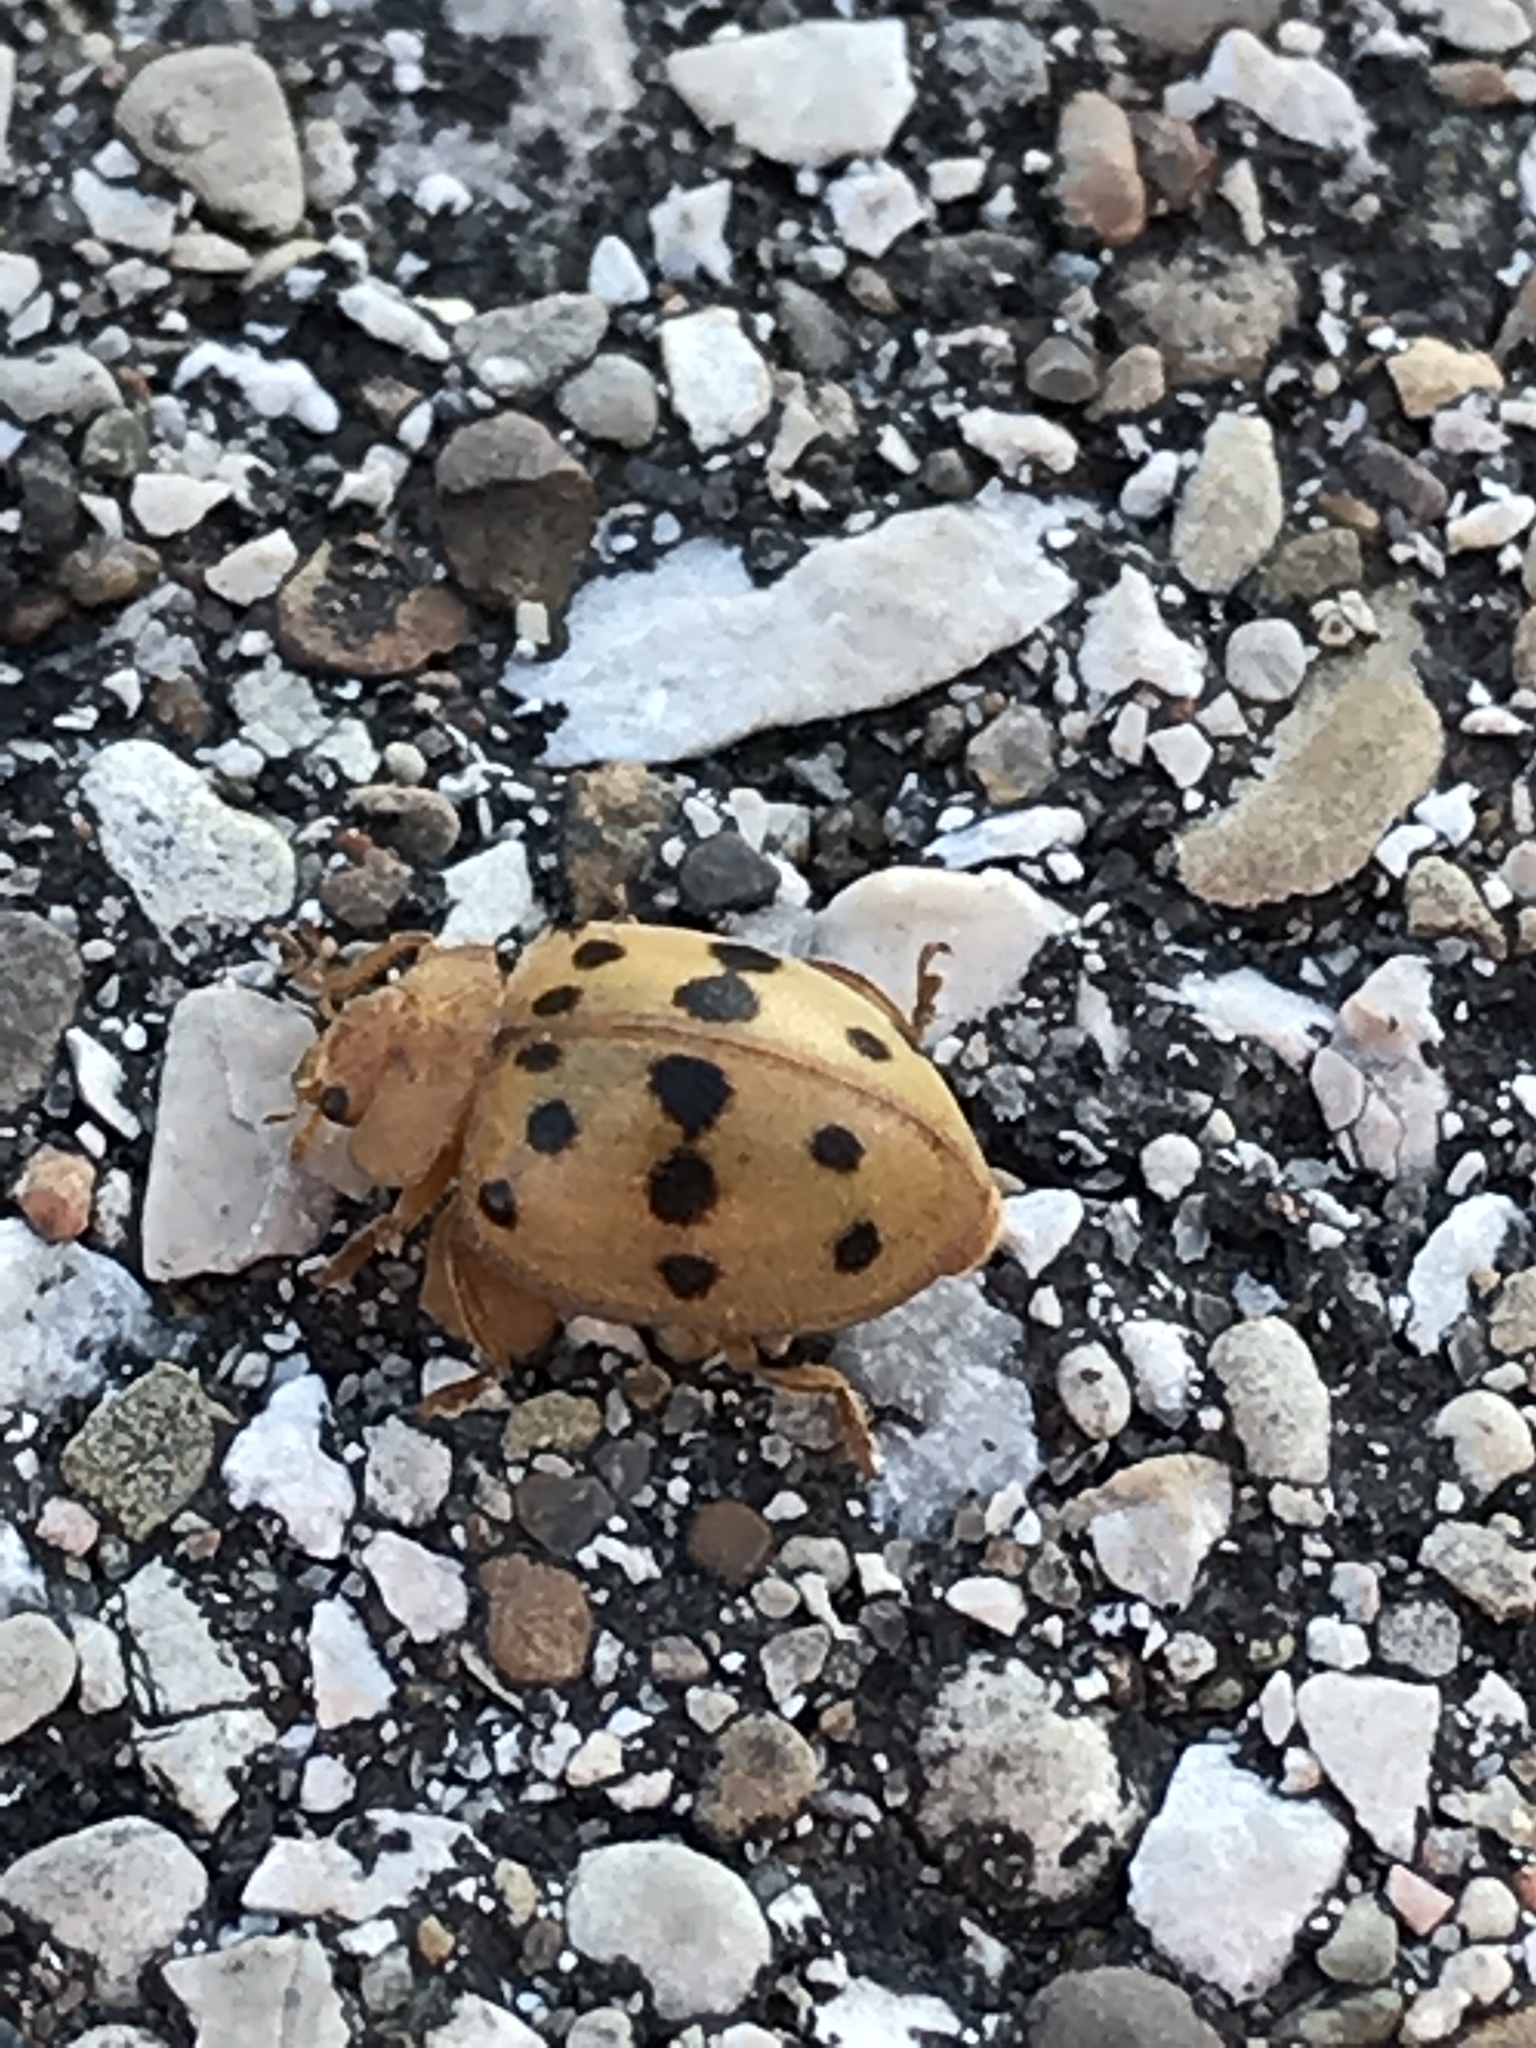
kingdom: Animalia
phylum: Arthropoda
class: Insecta
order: Coleoptera
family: Coccinellidae
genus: Epilachna
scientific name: Epilachna varivestis
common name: Ladybird beetle
